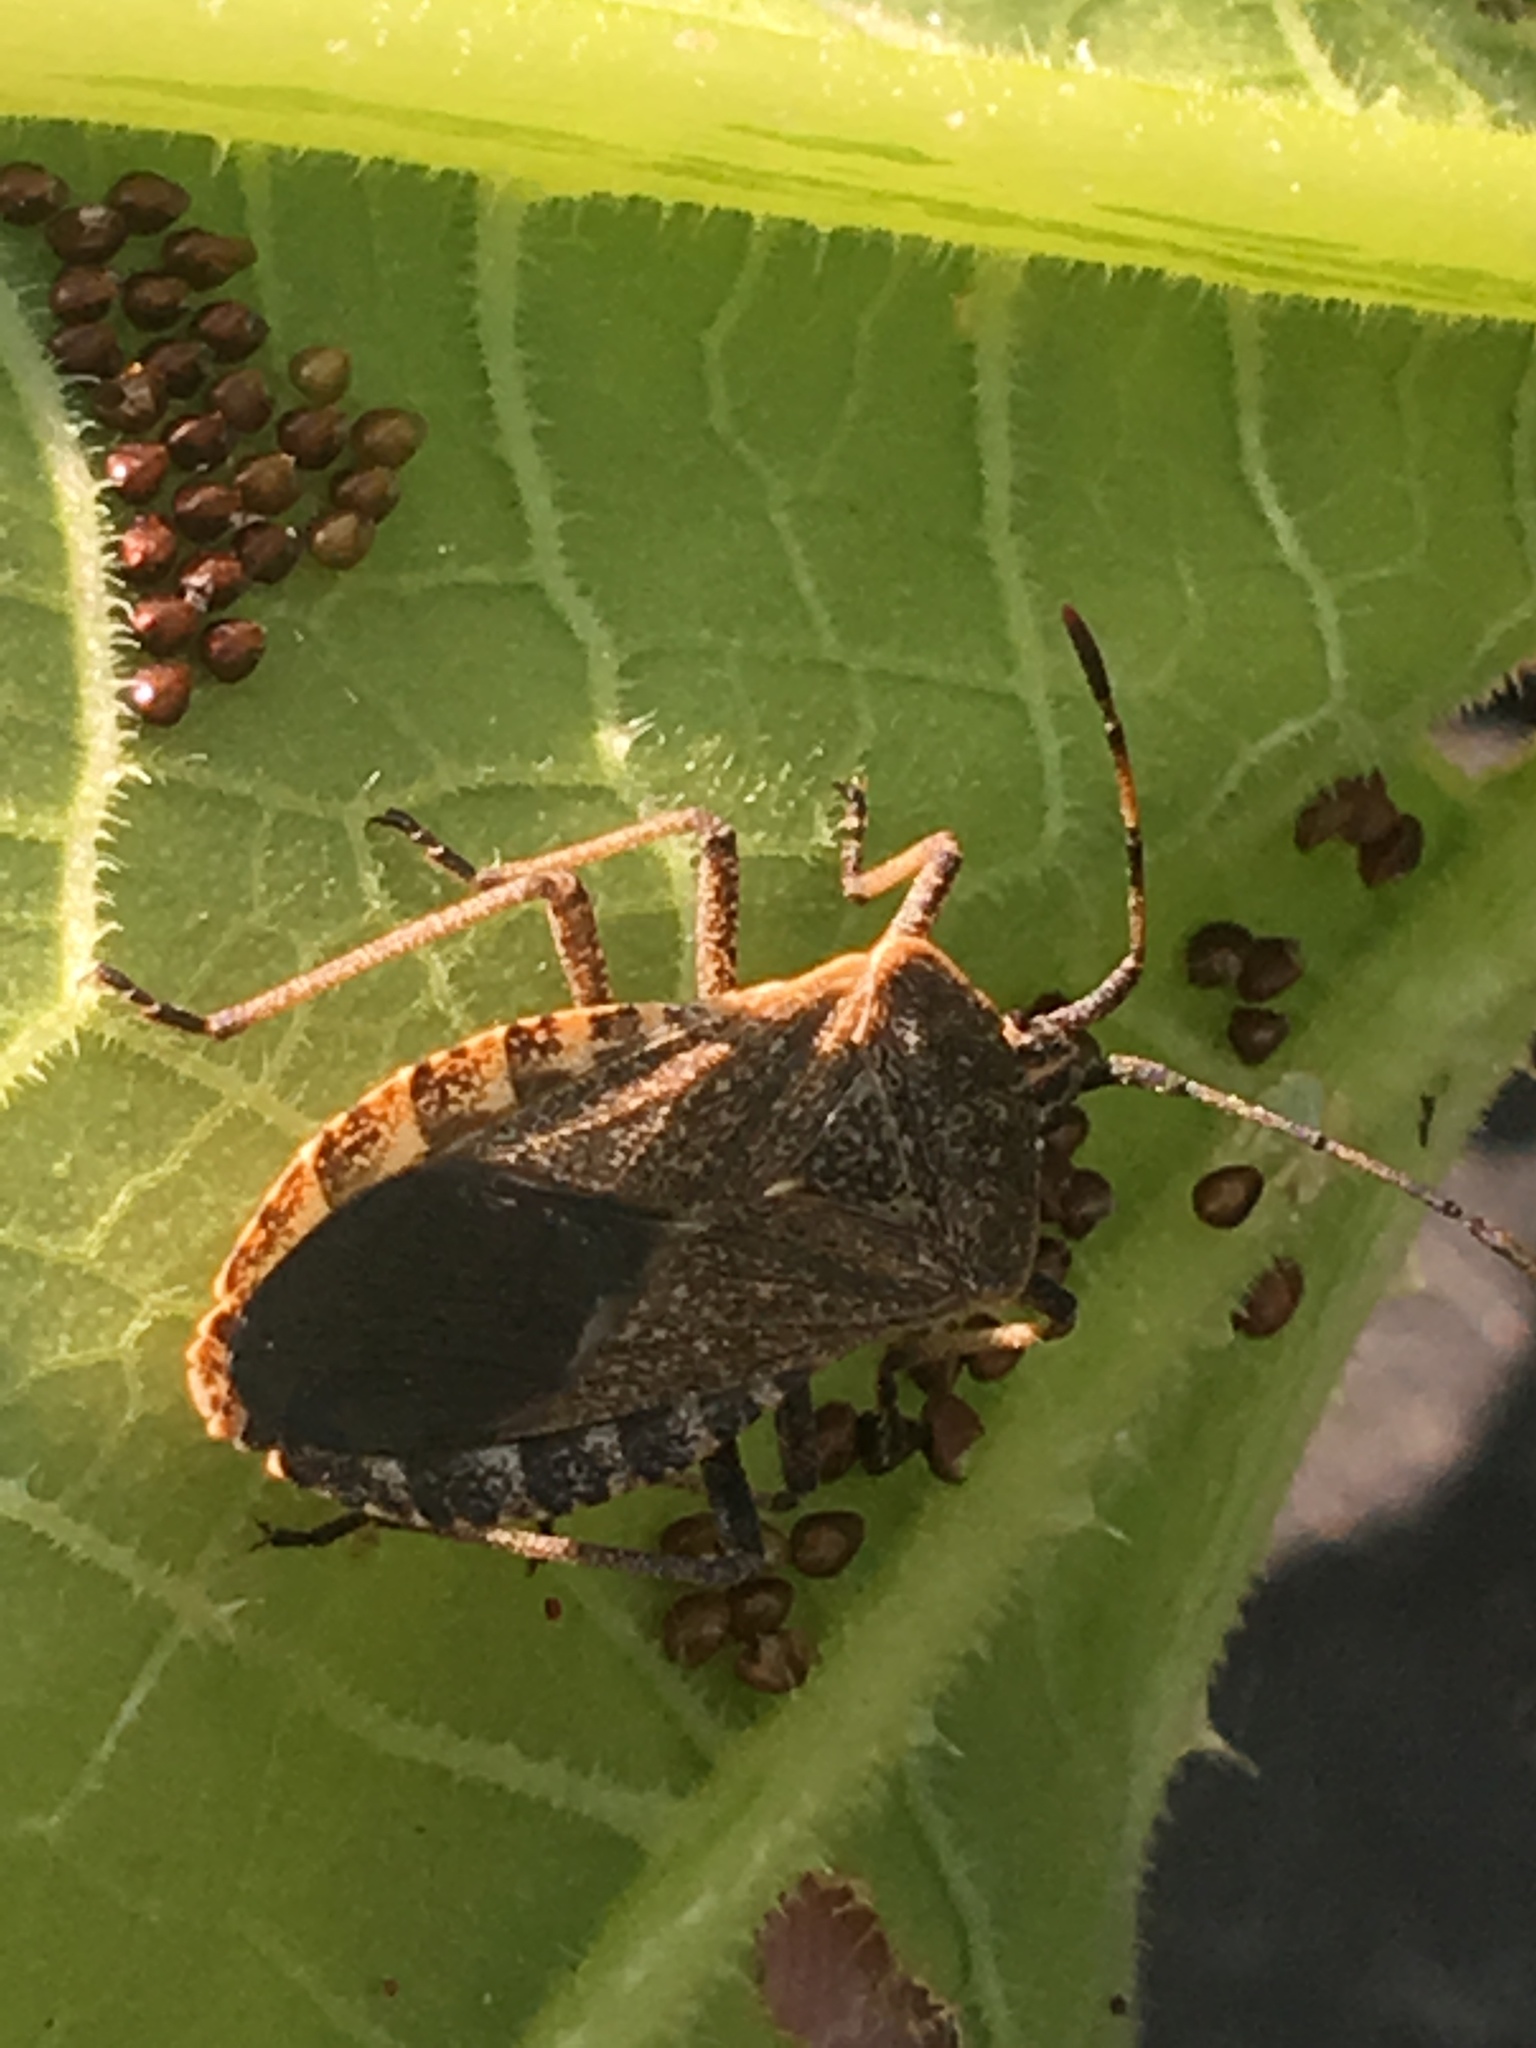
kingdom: Animalia
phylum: Arthropoda
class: Insecta
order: Hemiptera
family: Coreidae
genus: Anasa
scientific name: Anasa tristis
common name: Squash bug
